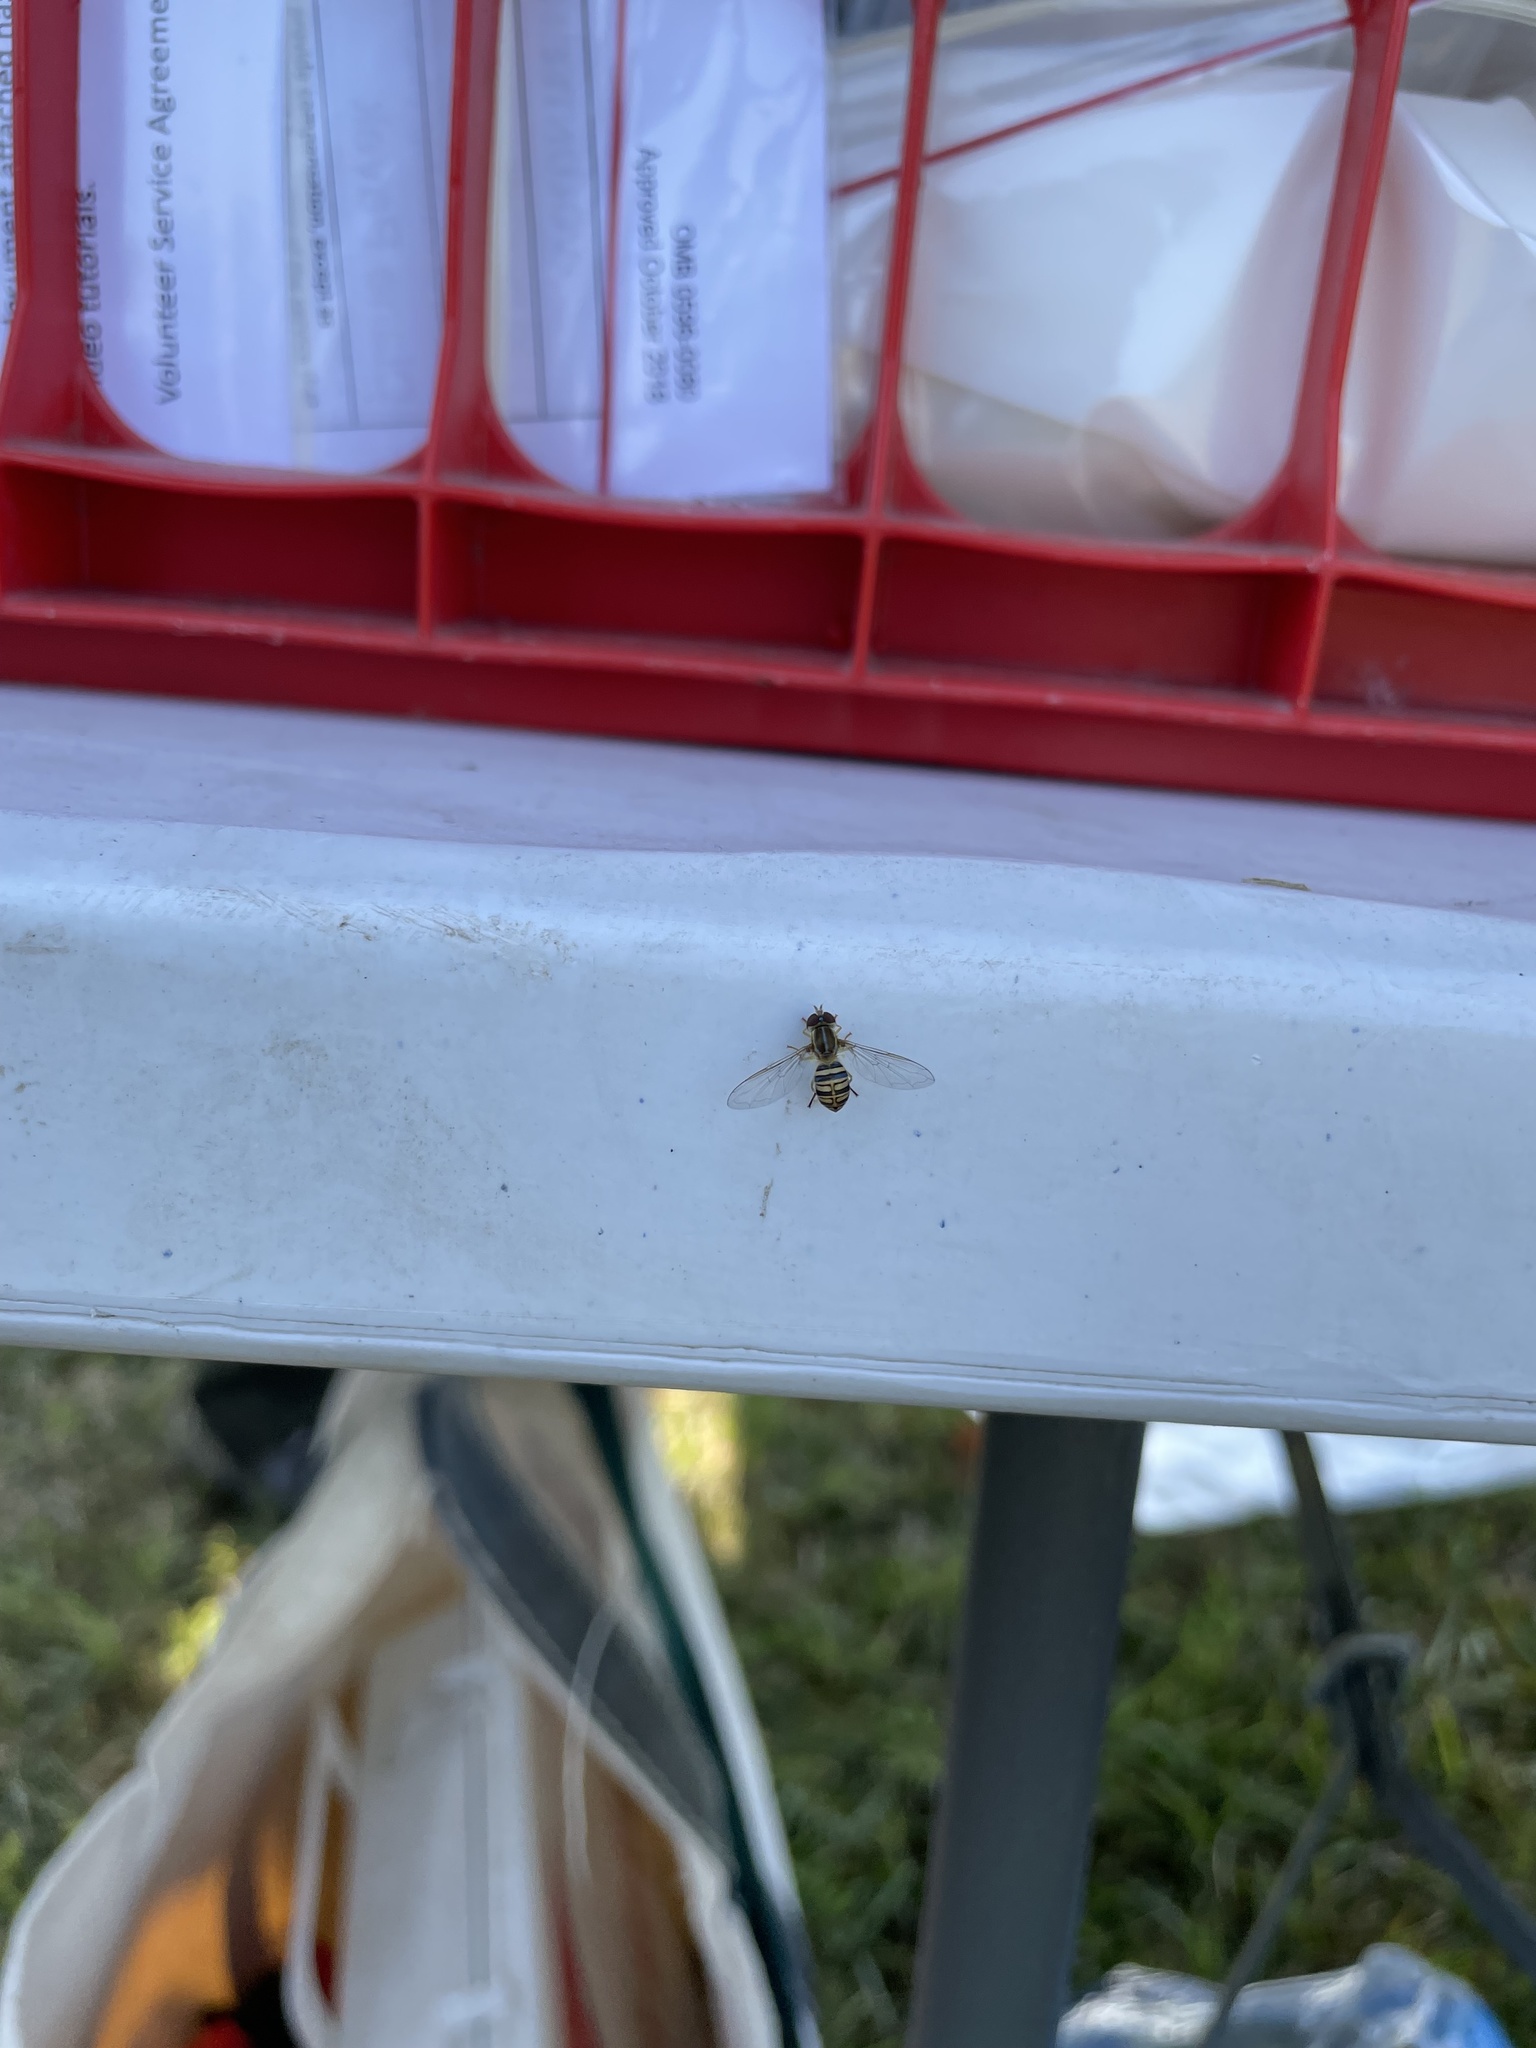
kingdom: Animalia
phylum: Arthropoda
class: Insecta
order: Diptera
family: Syrphidae
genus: Toxomerus
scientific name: Toxomerus politus
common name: Maize calligrapher
